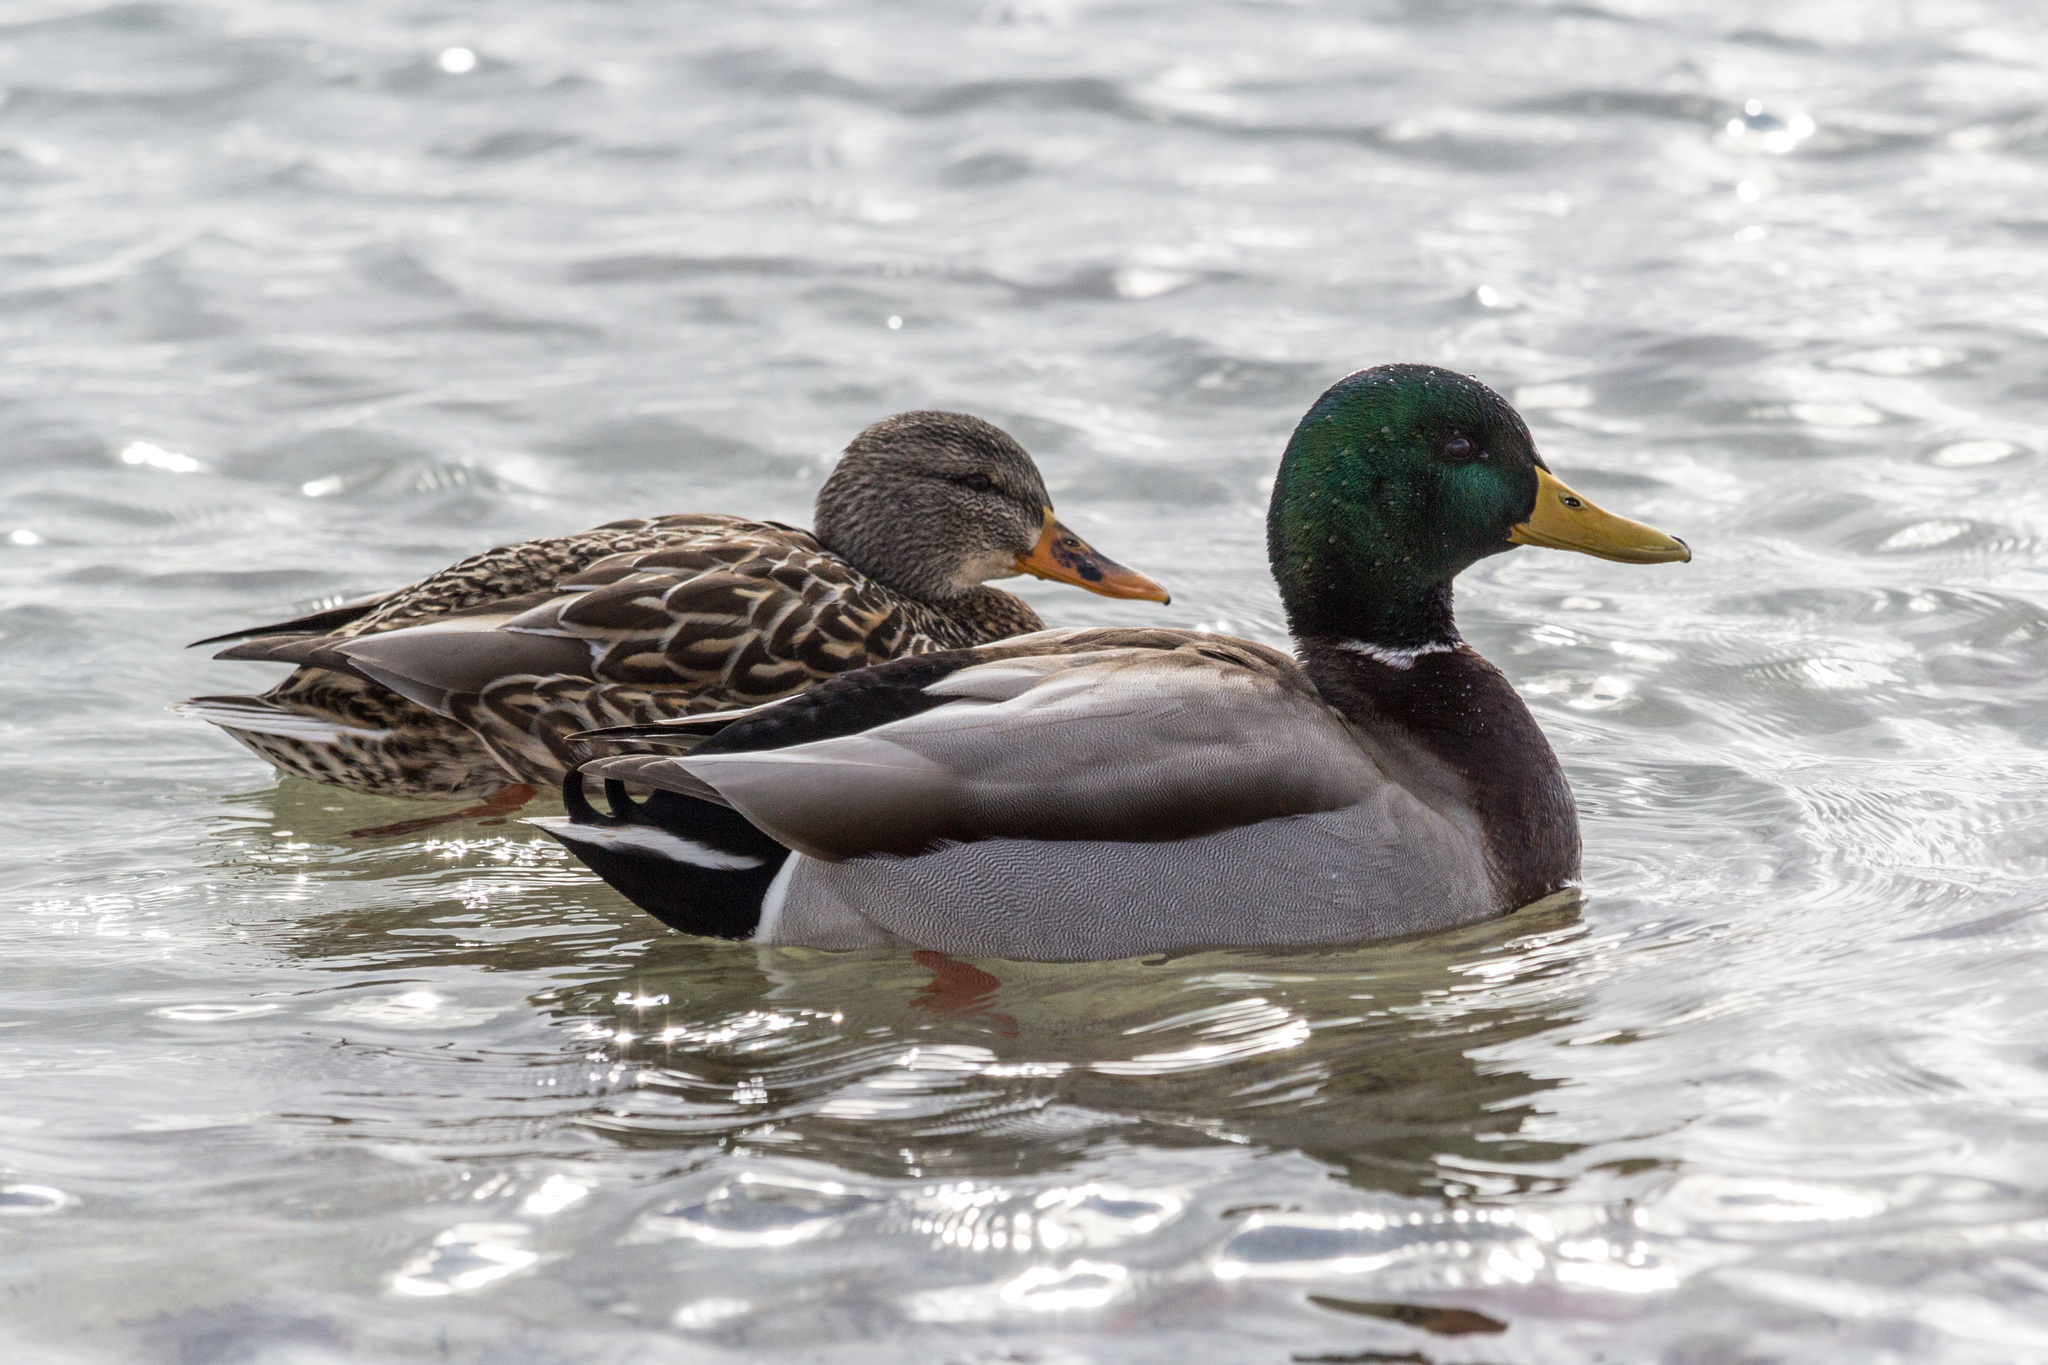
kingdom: Animalia
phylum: Chordata
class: Aves
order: Anseriformes
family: Anatidae
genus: Anas
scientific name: Anas platyrhynchos
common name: Mallard
